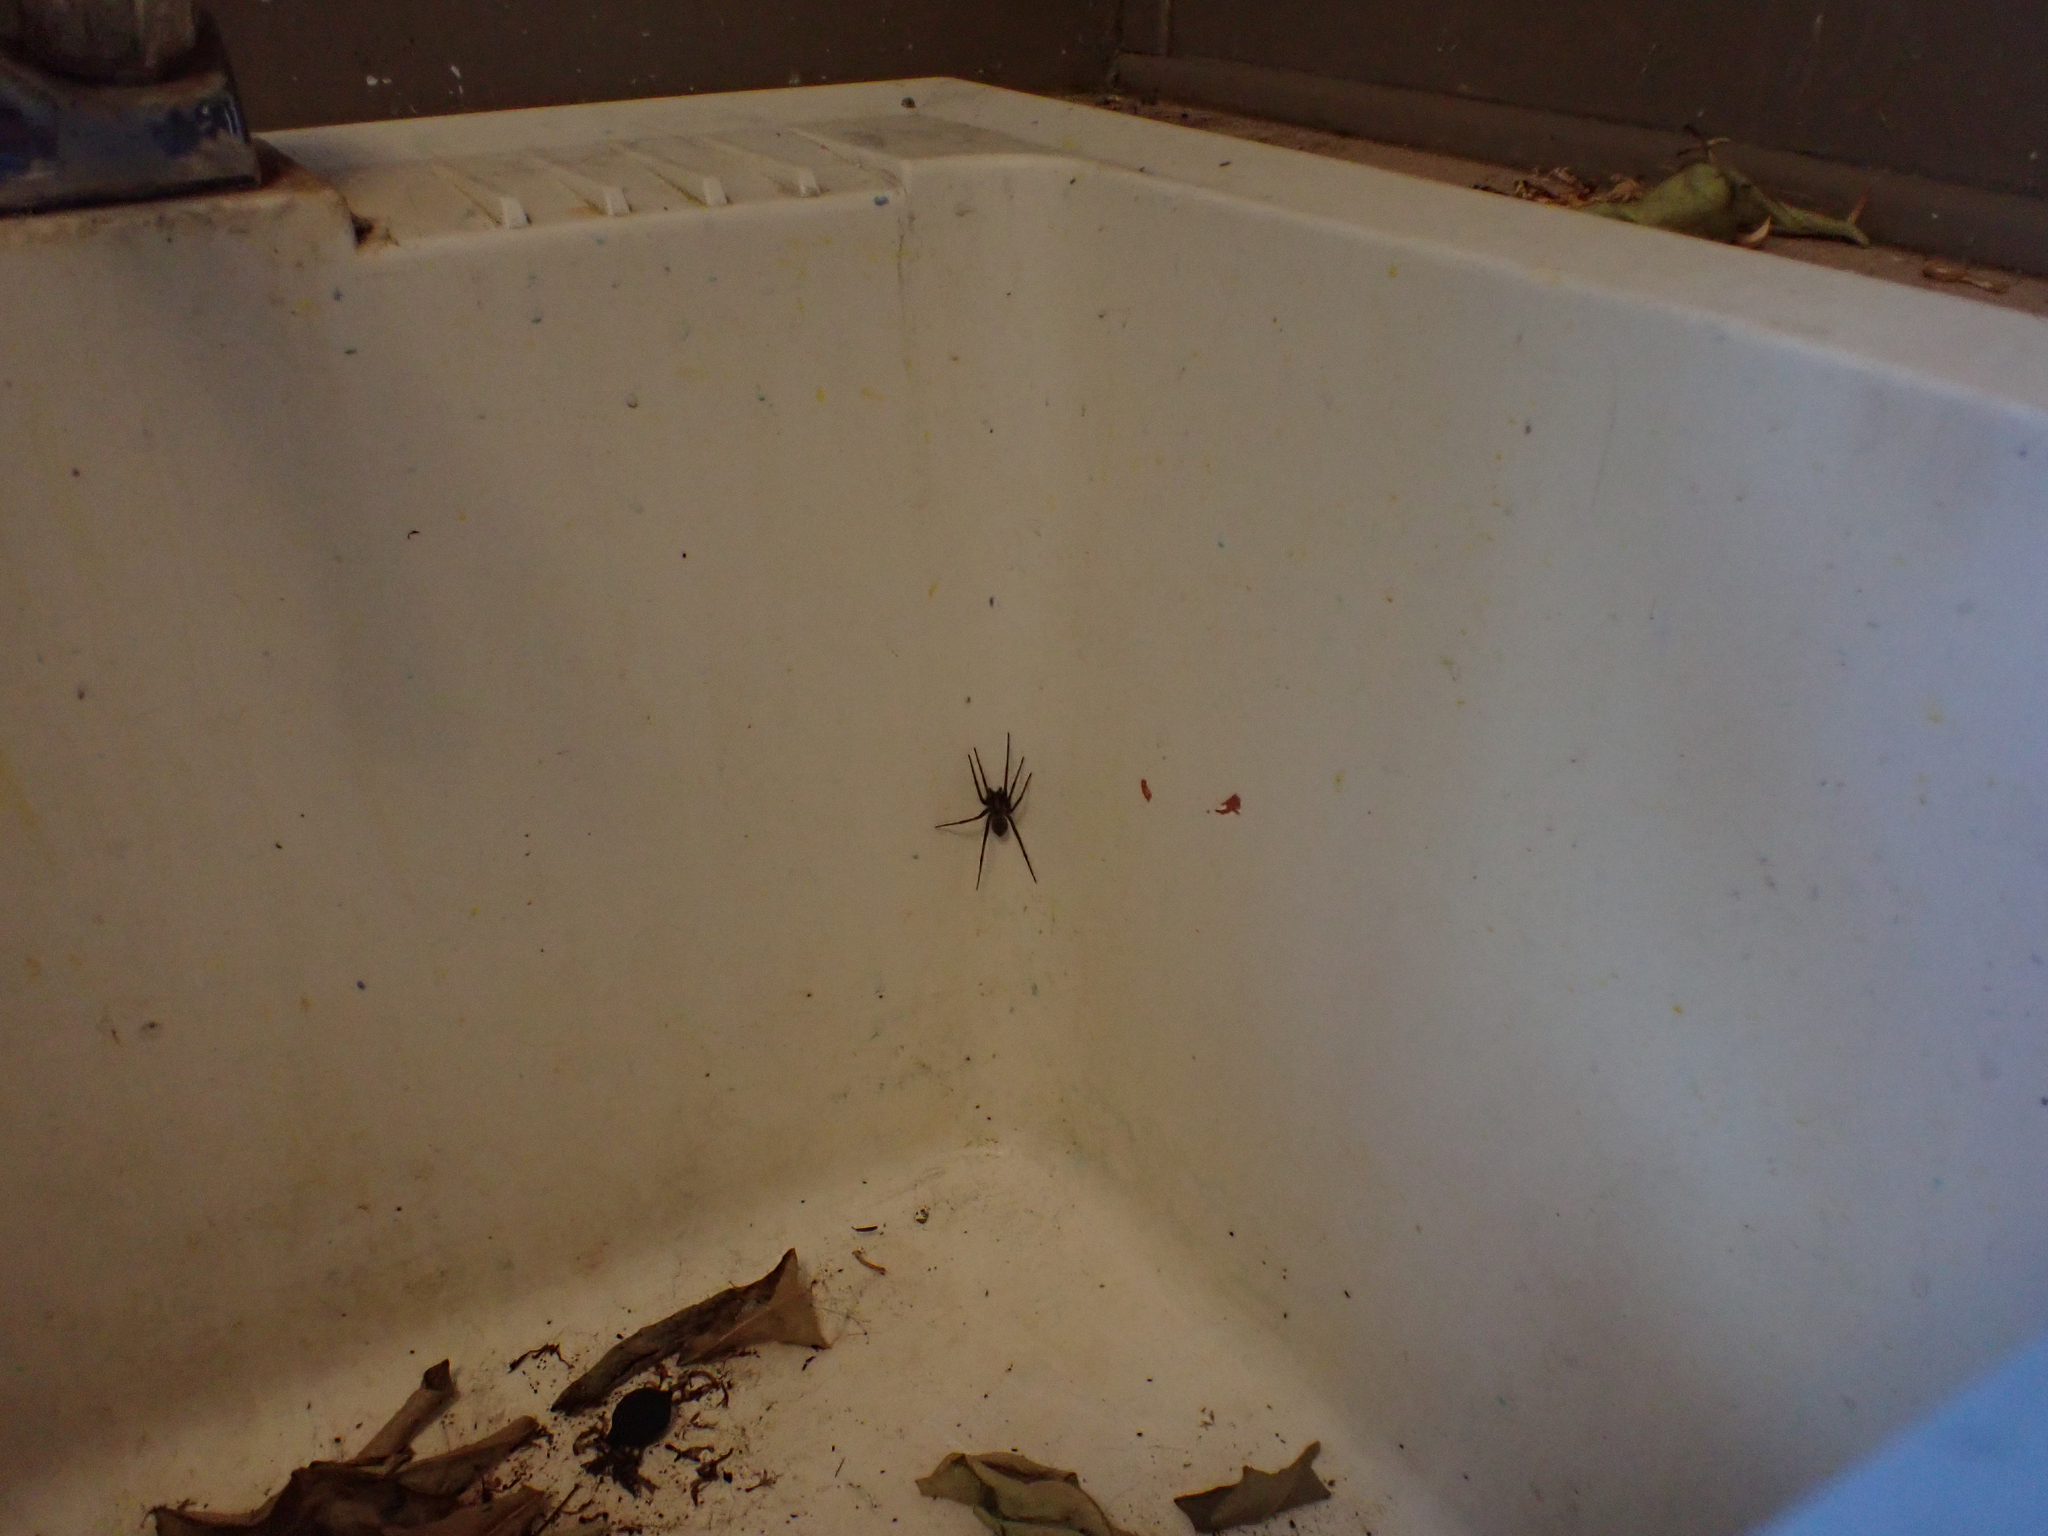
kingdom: Animalia
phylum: Arthropoda
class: Arachnida
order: Araneae
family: Agelenidae
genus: Eratigena
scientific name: Eratigena duellica
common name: Giant house spider
